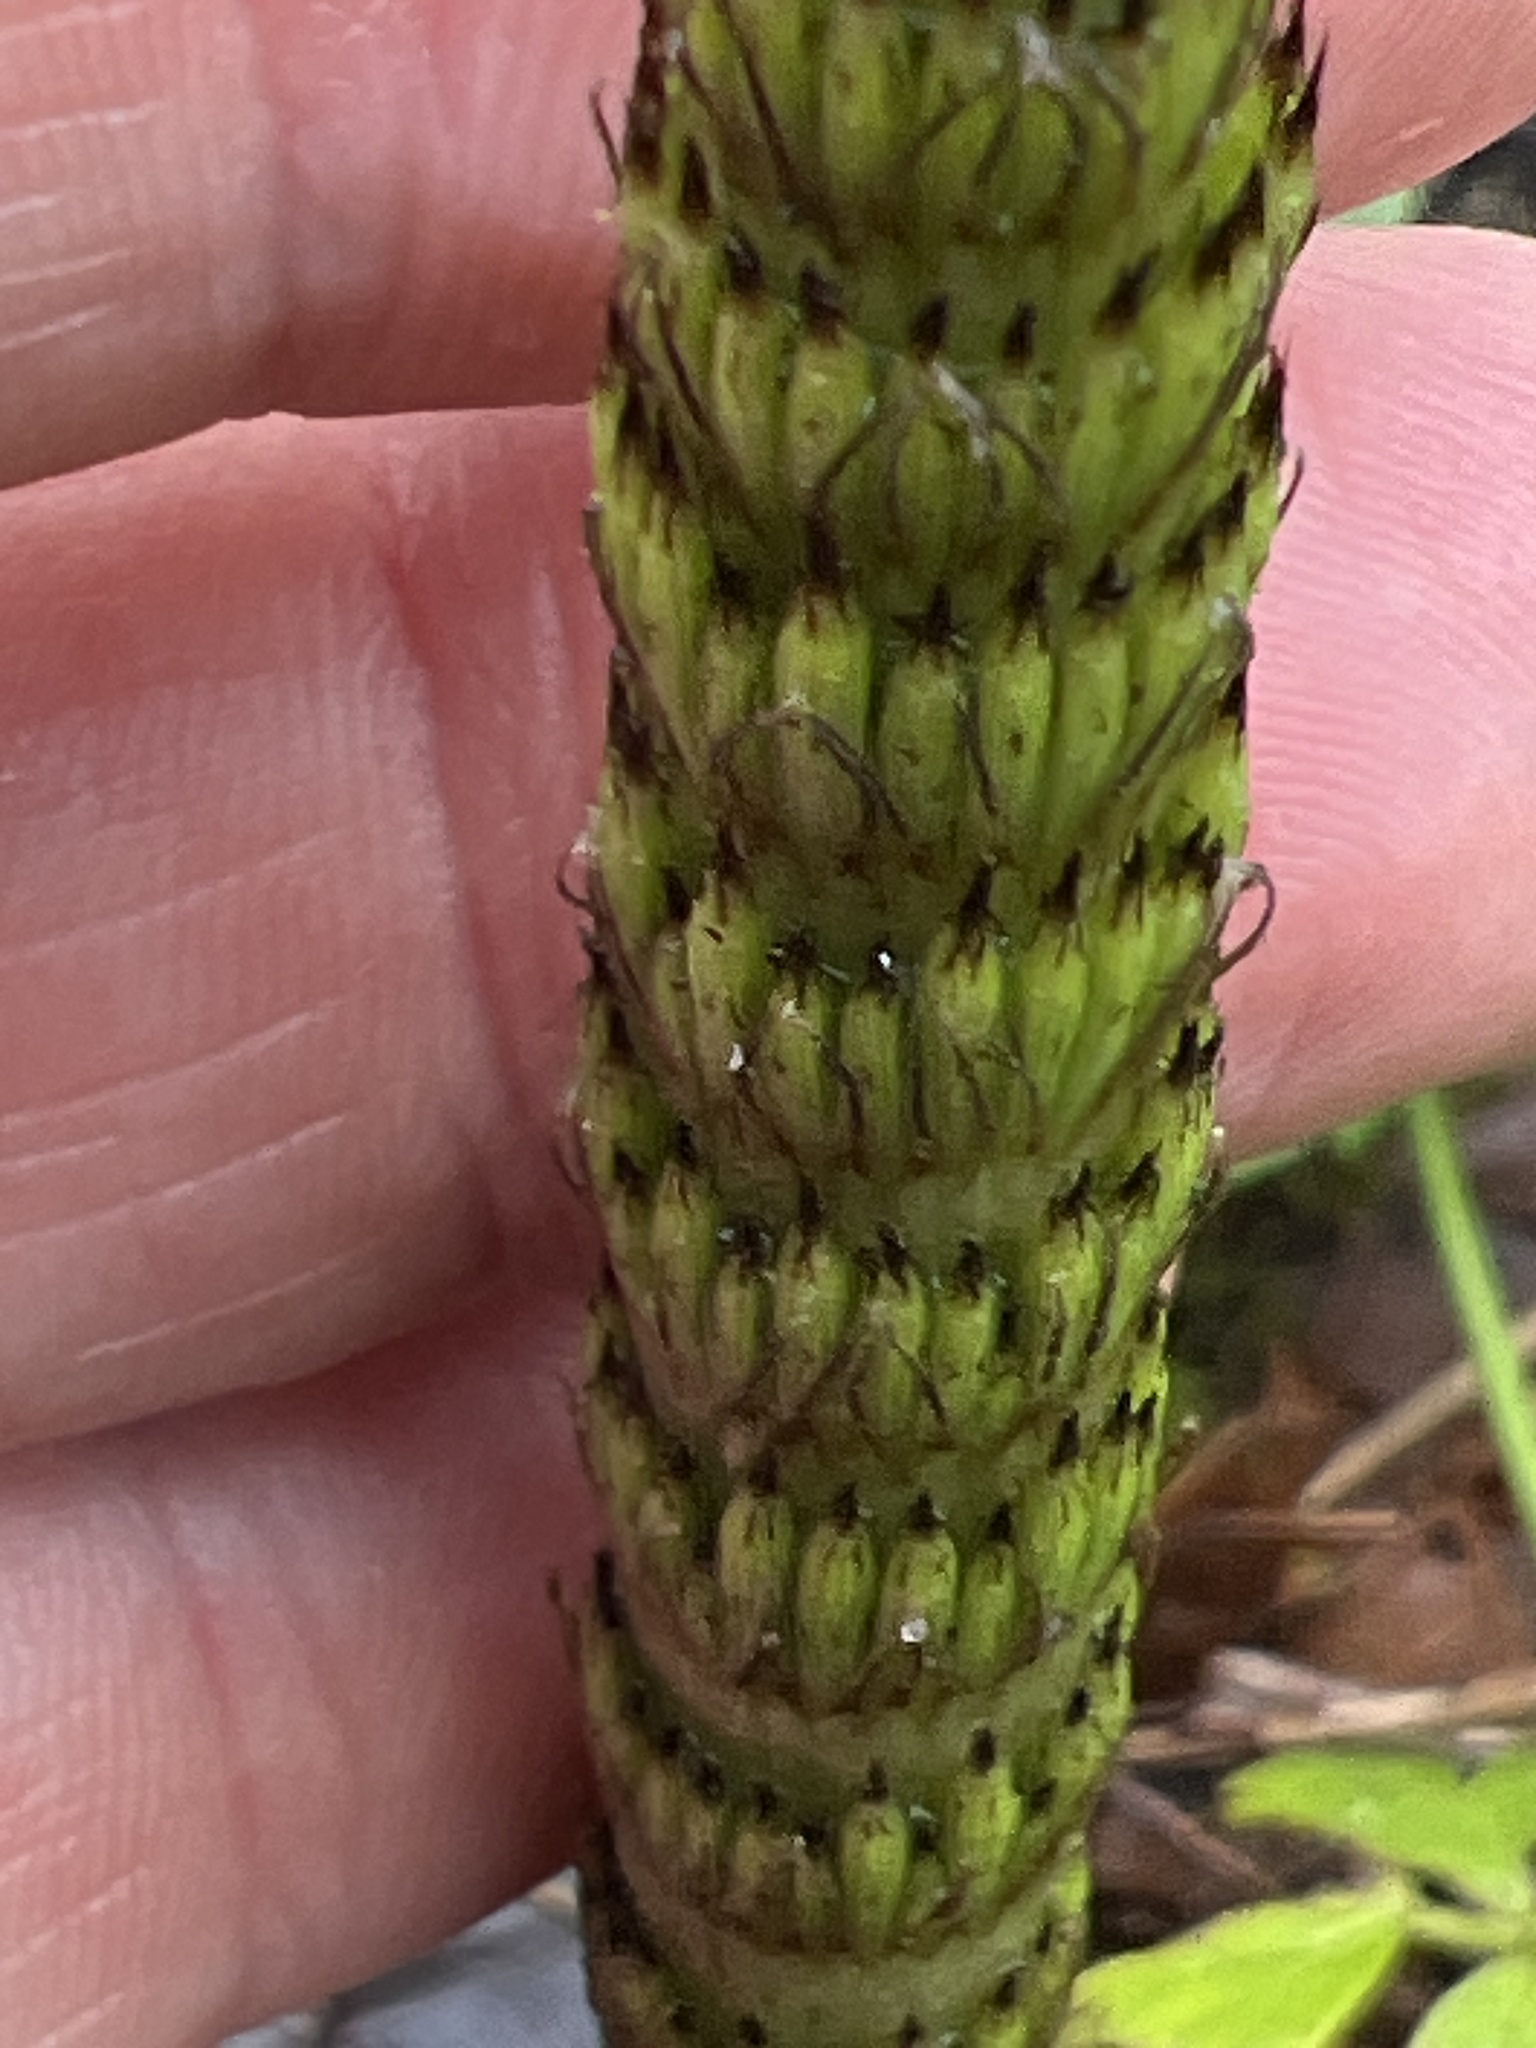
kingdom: Plantae
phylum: Tracheophyta
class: Polypodiopsida
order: Equisetales
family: Equisetaceae
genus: Equisetum
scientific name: Equisetum telmateia
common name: Great horsetail
